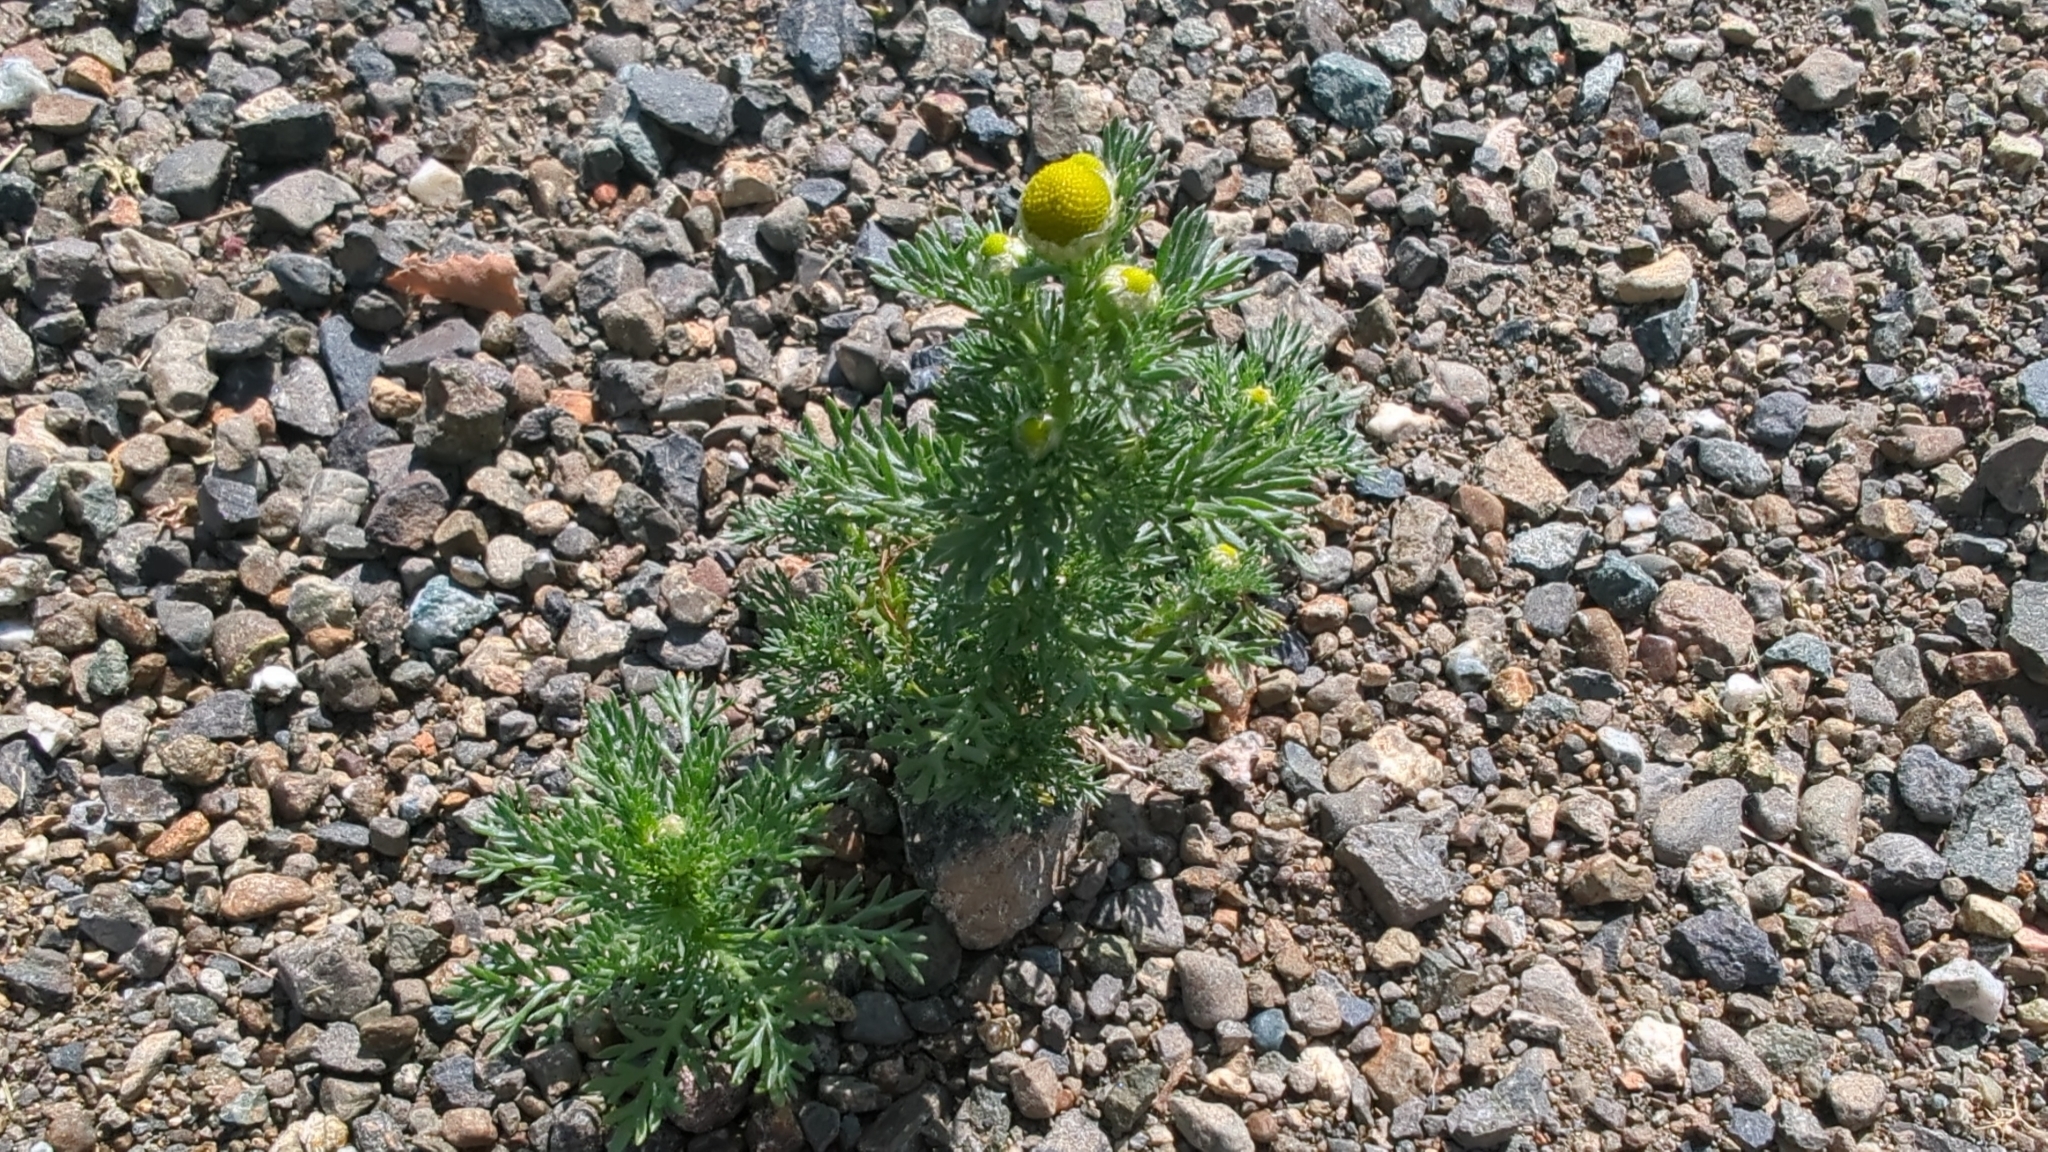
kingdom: Plantae
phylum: Tracheophyta
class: Magnoliopsida
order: Asterales
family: Asteraceae
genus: Matricaria
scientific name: Matricaria discoidea
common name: Disc mayweed
